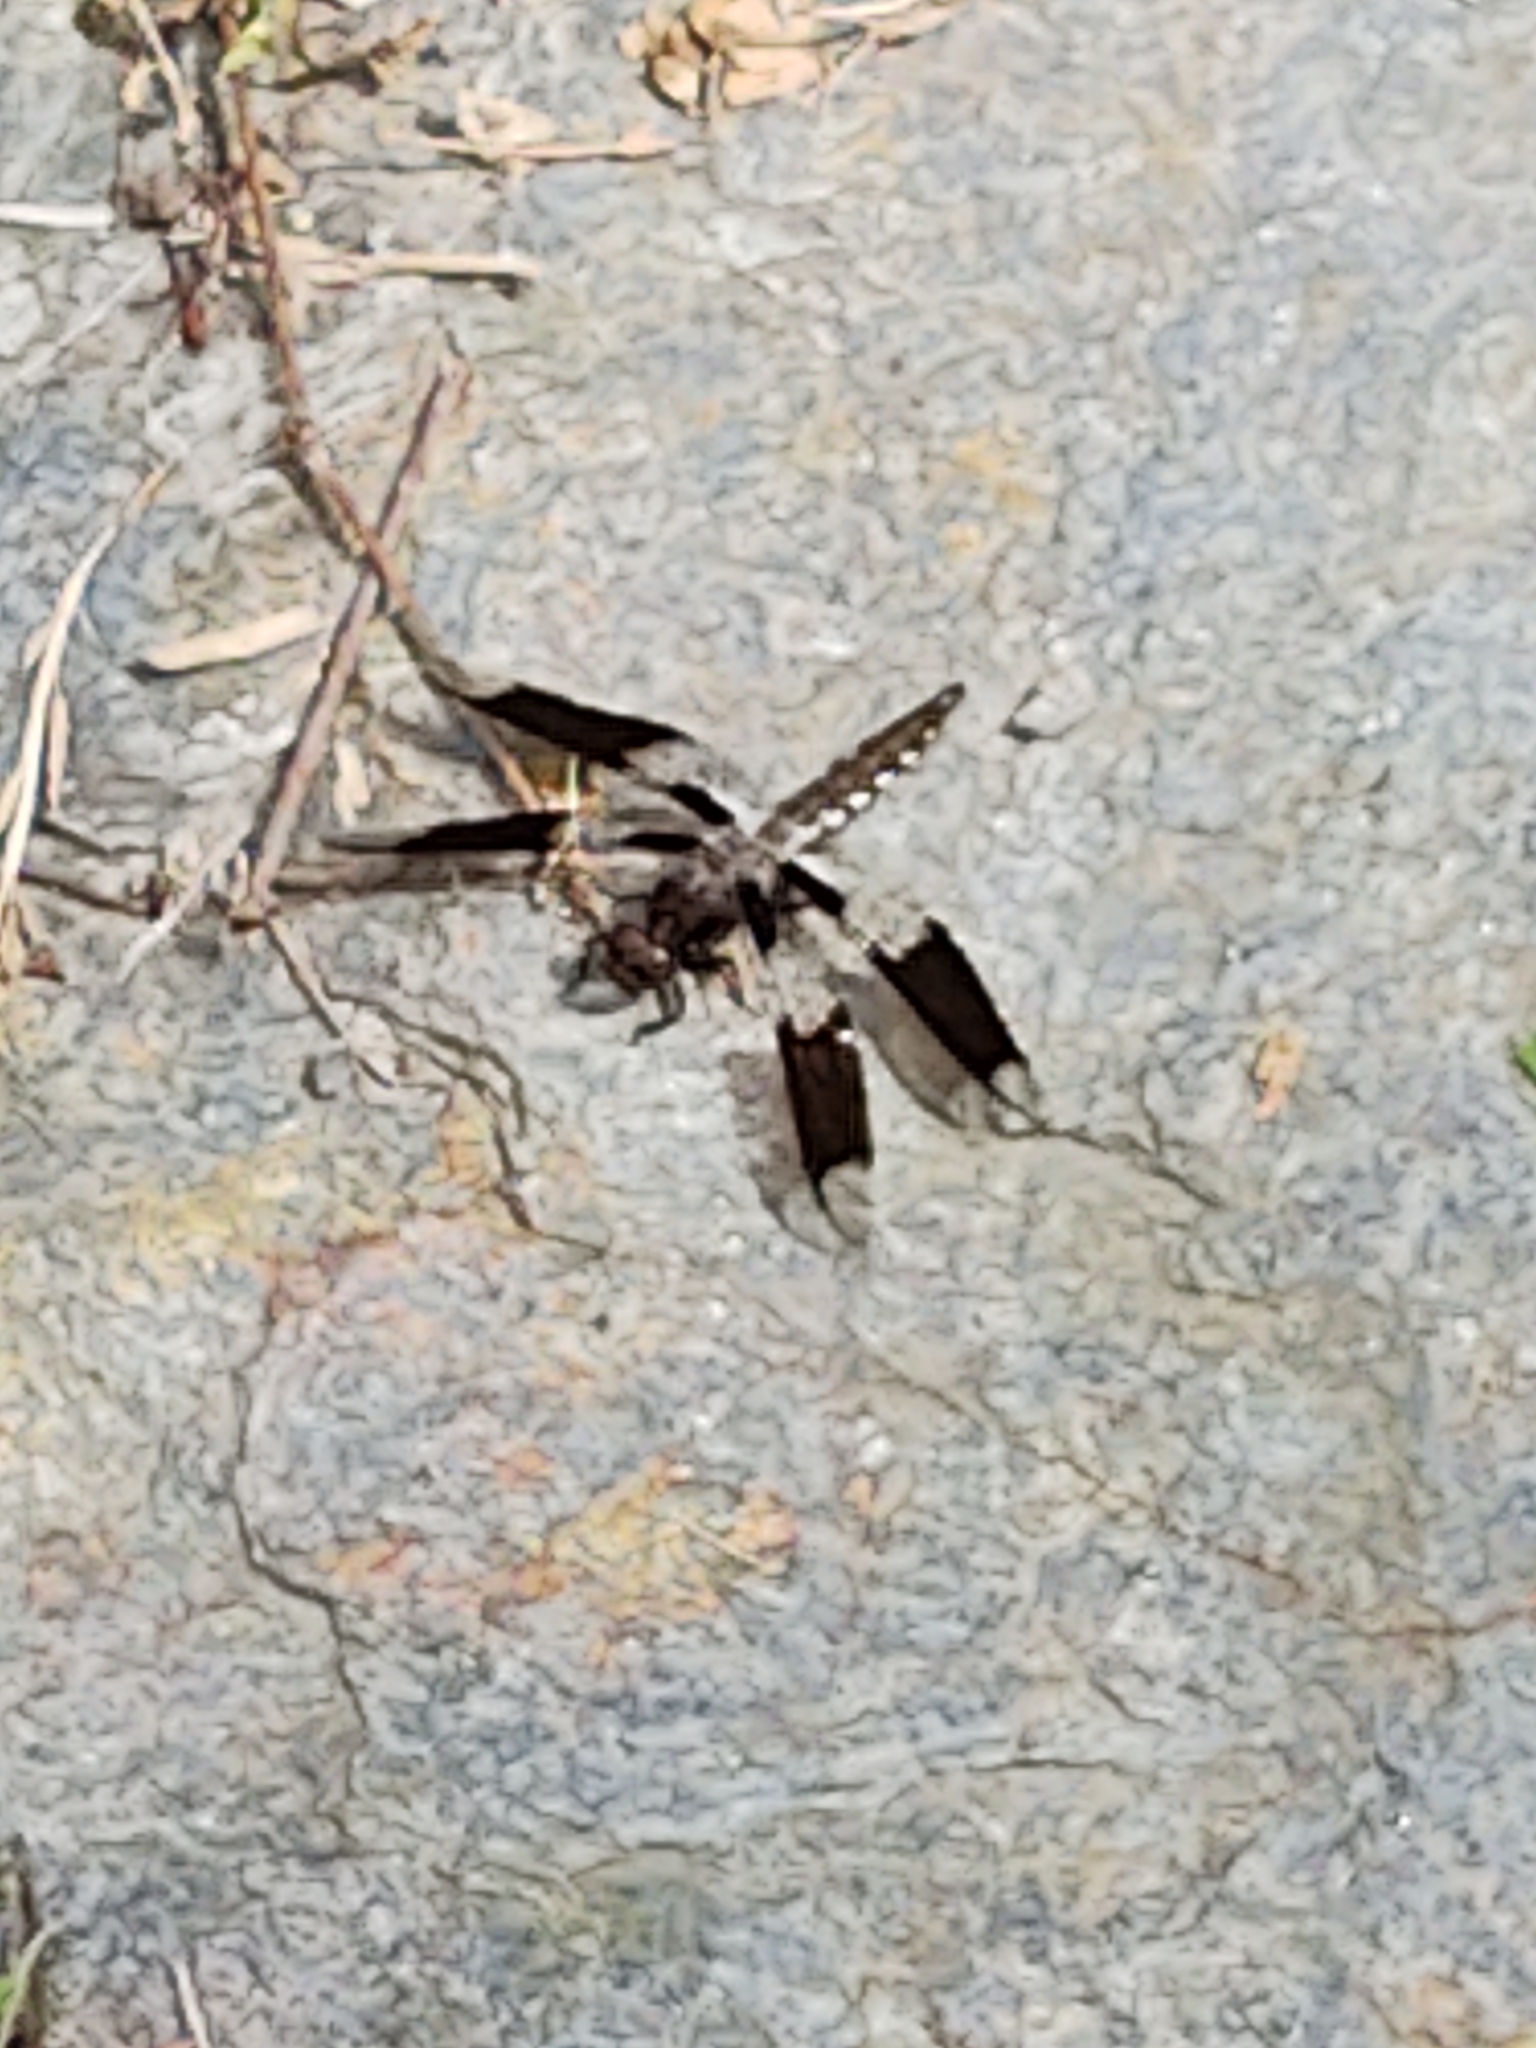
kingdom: Animalia
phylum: Arthropoda
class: Insecta
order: Odonata
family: Libellulidae
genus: Plathemis
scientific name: Plathemis lydia
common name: Common whitetail
